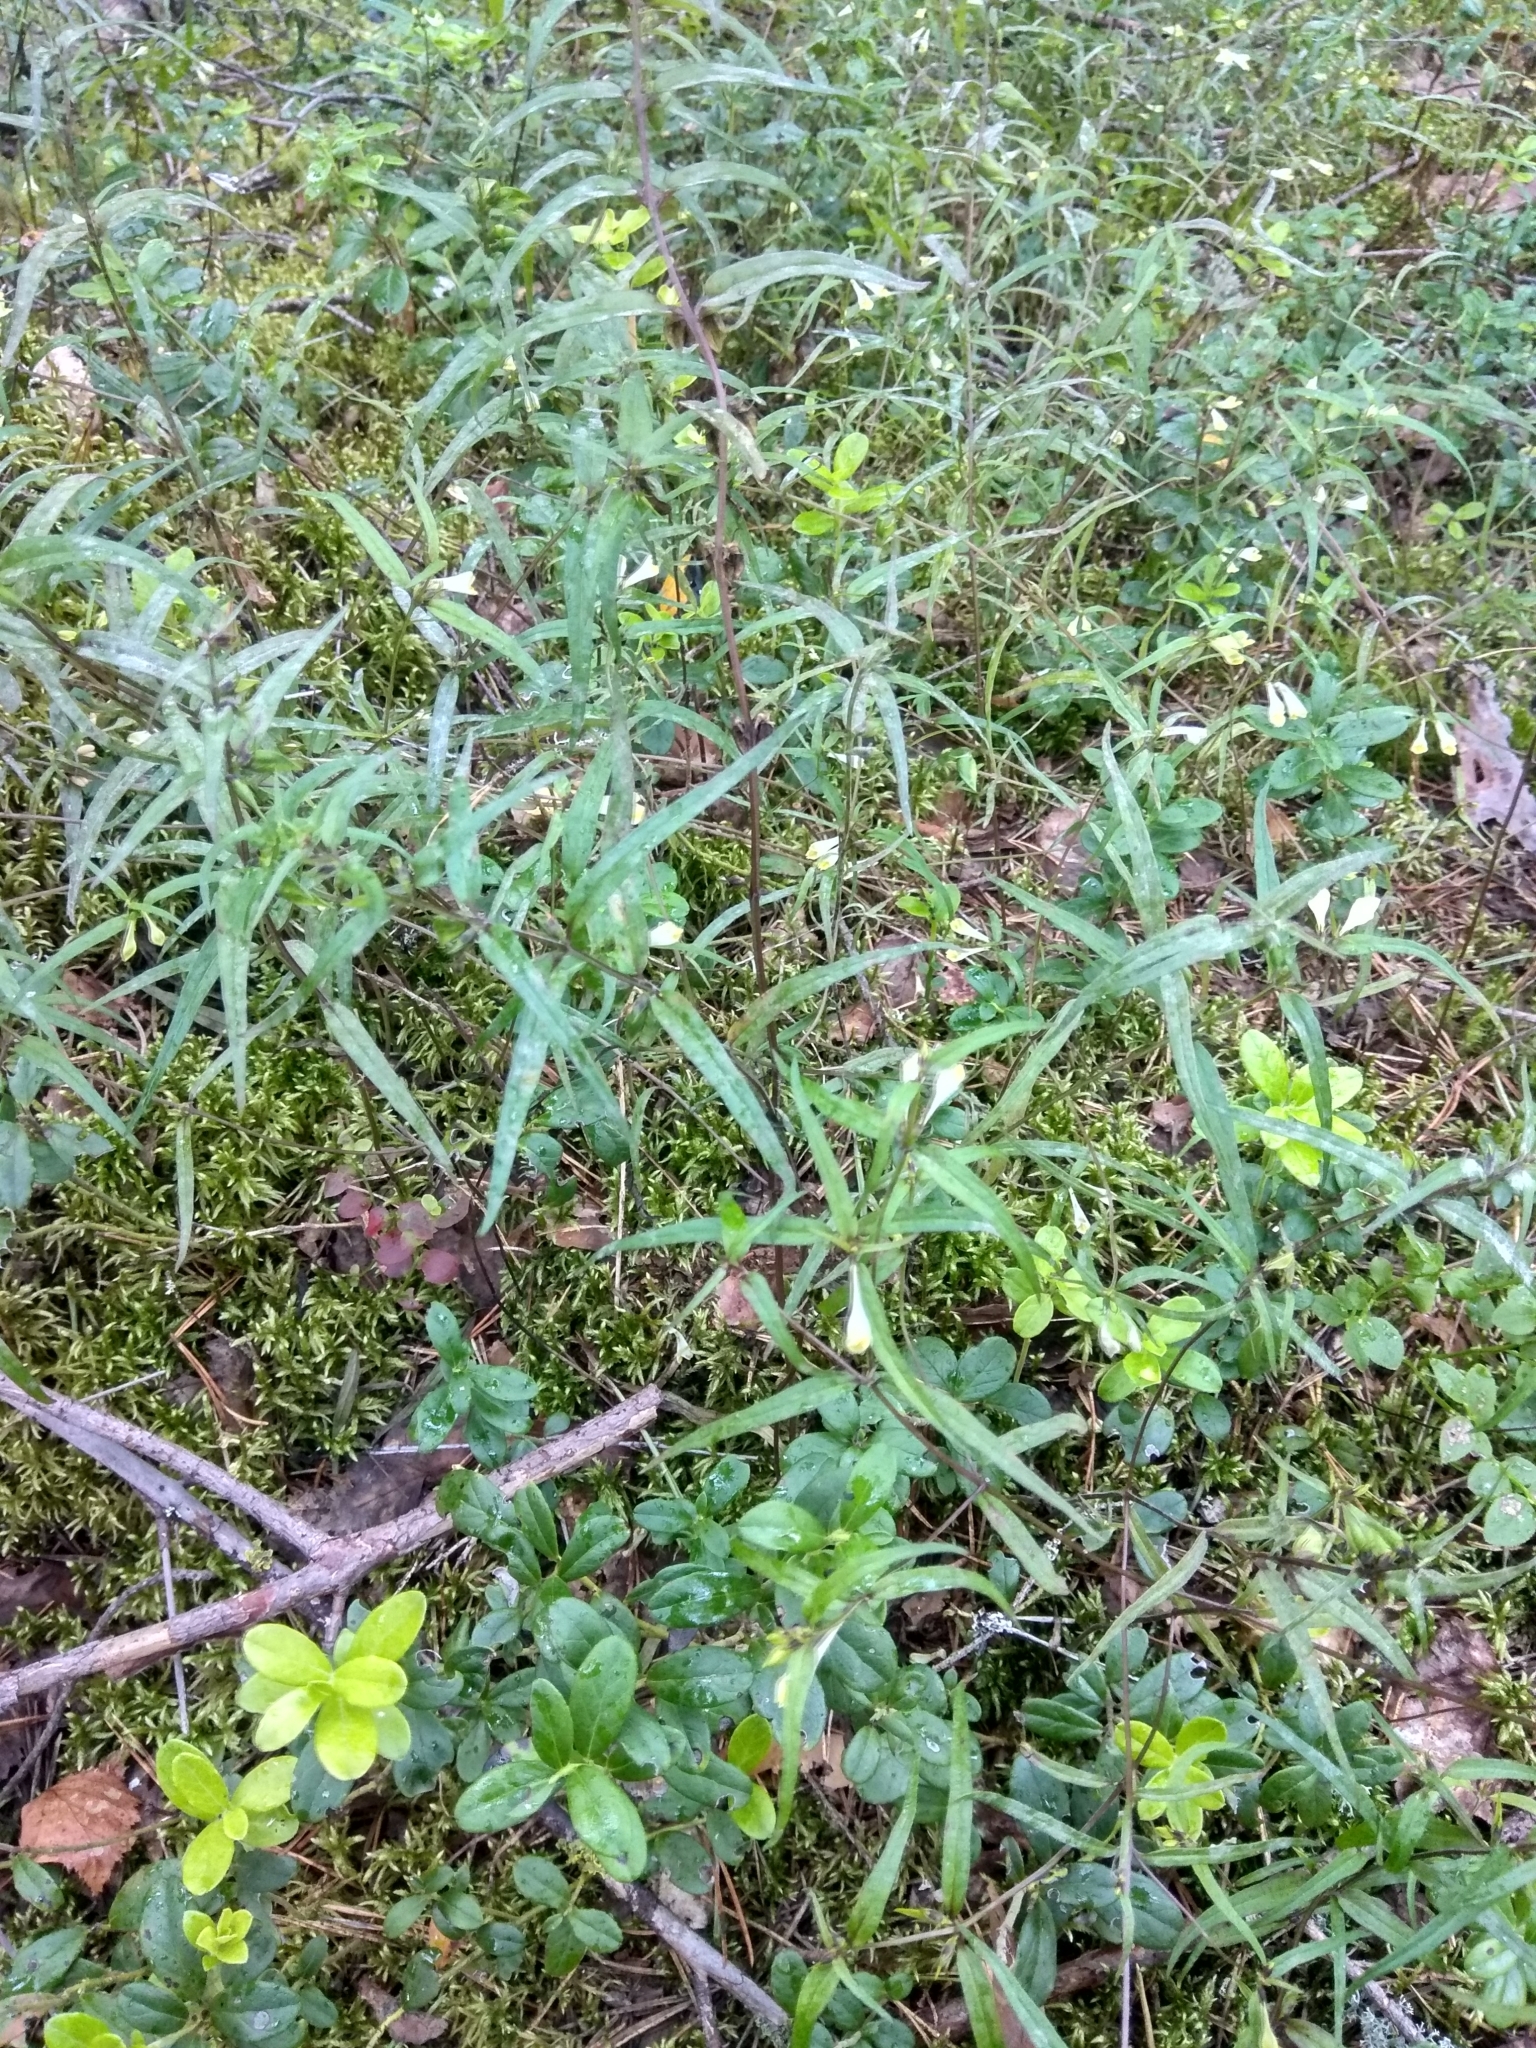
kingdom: Plantae
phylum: Tracheophyta
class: Magnoliopsida
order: Lamiales
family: Orobanchaceae
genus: Melampyrum
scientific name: Melampyrum pratense
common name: Common cow-wheat
